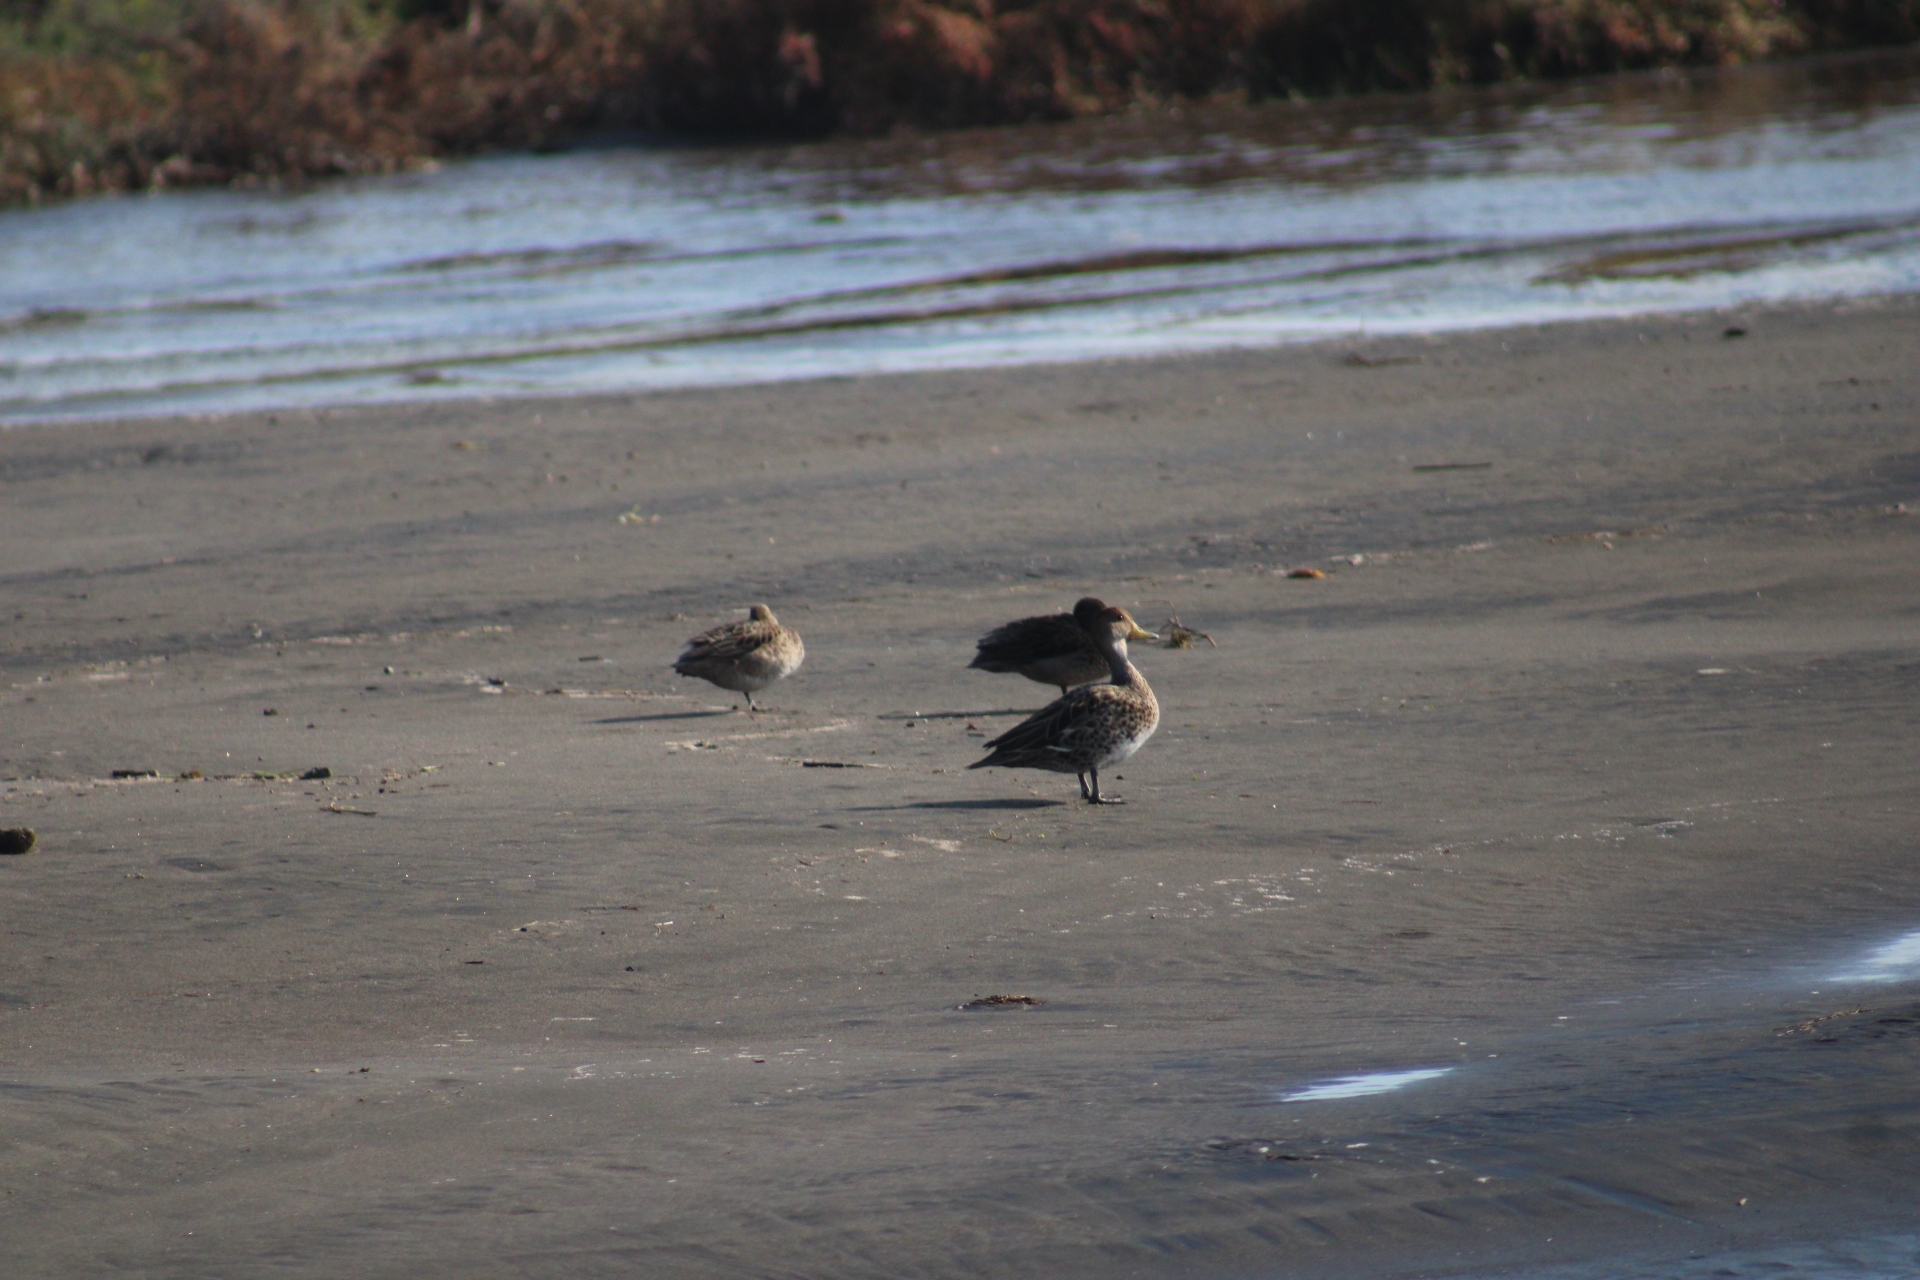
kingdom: Animalia
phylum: Chordata
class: Aves
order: Anseriformes
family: Anatidae
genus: Anas
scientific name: Anas georgica
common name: Yellow-billed pintail
